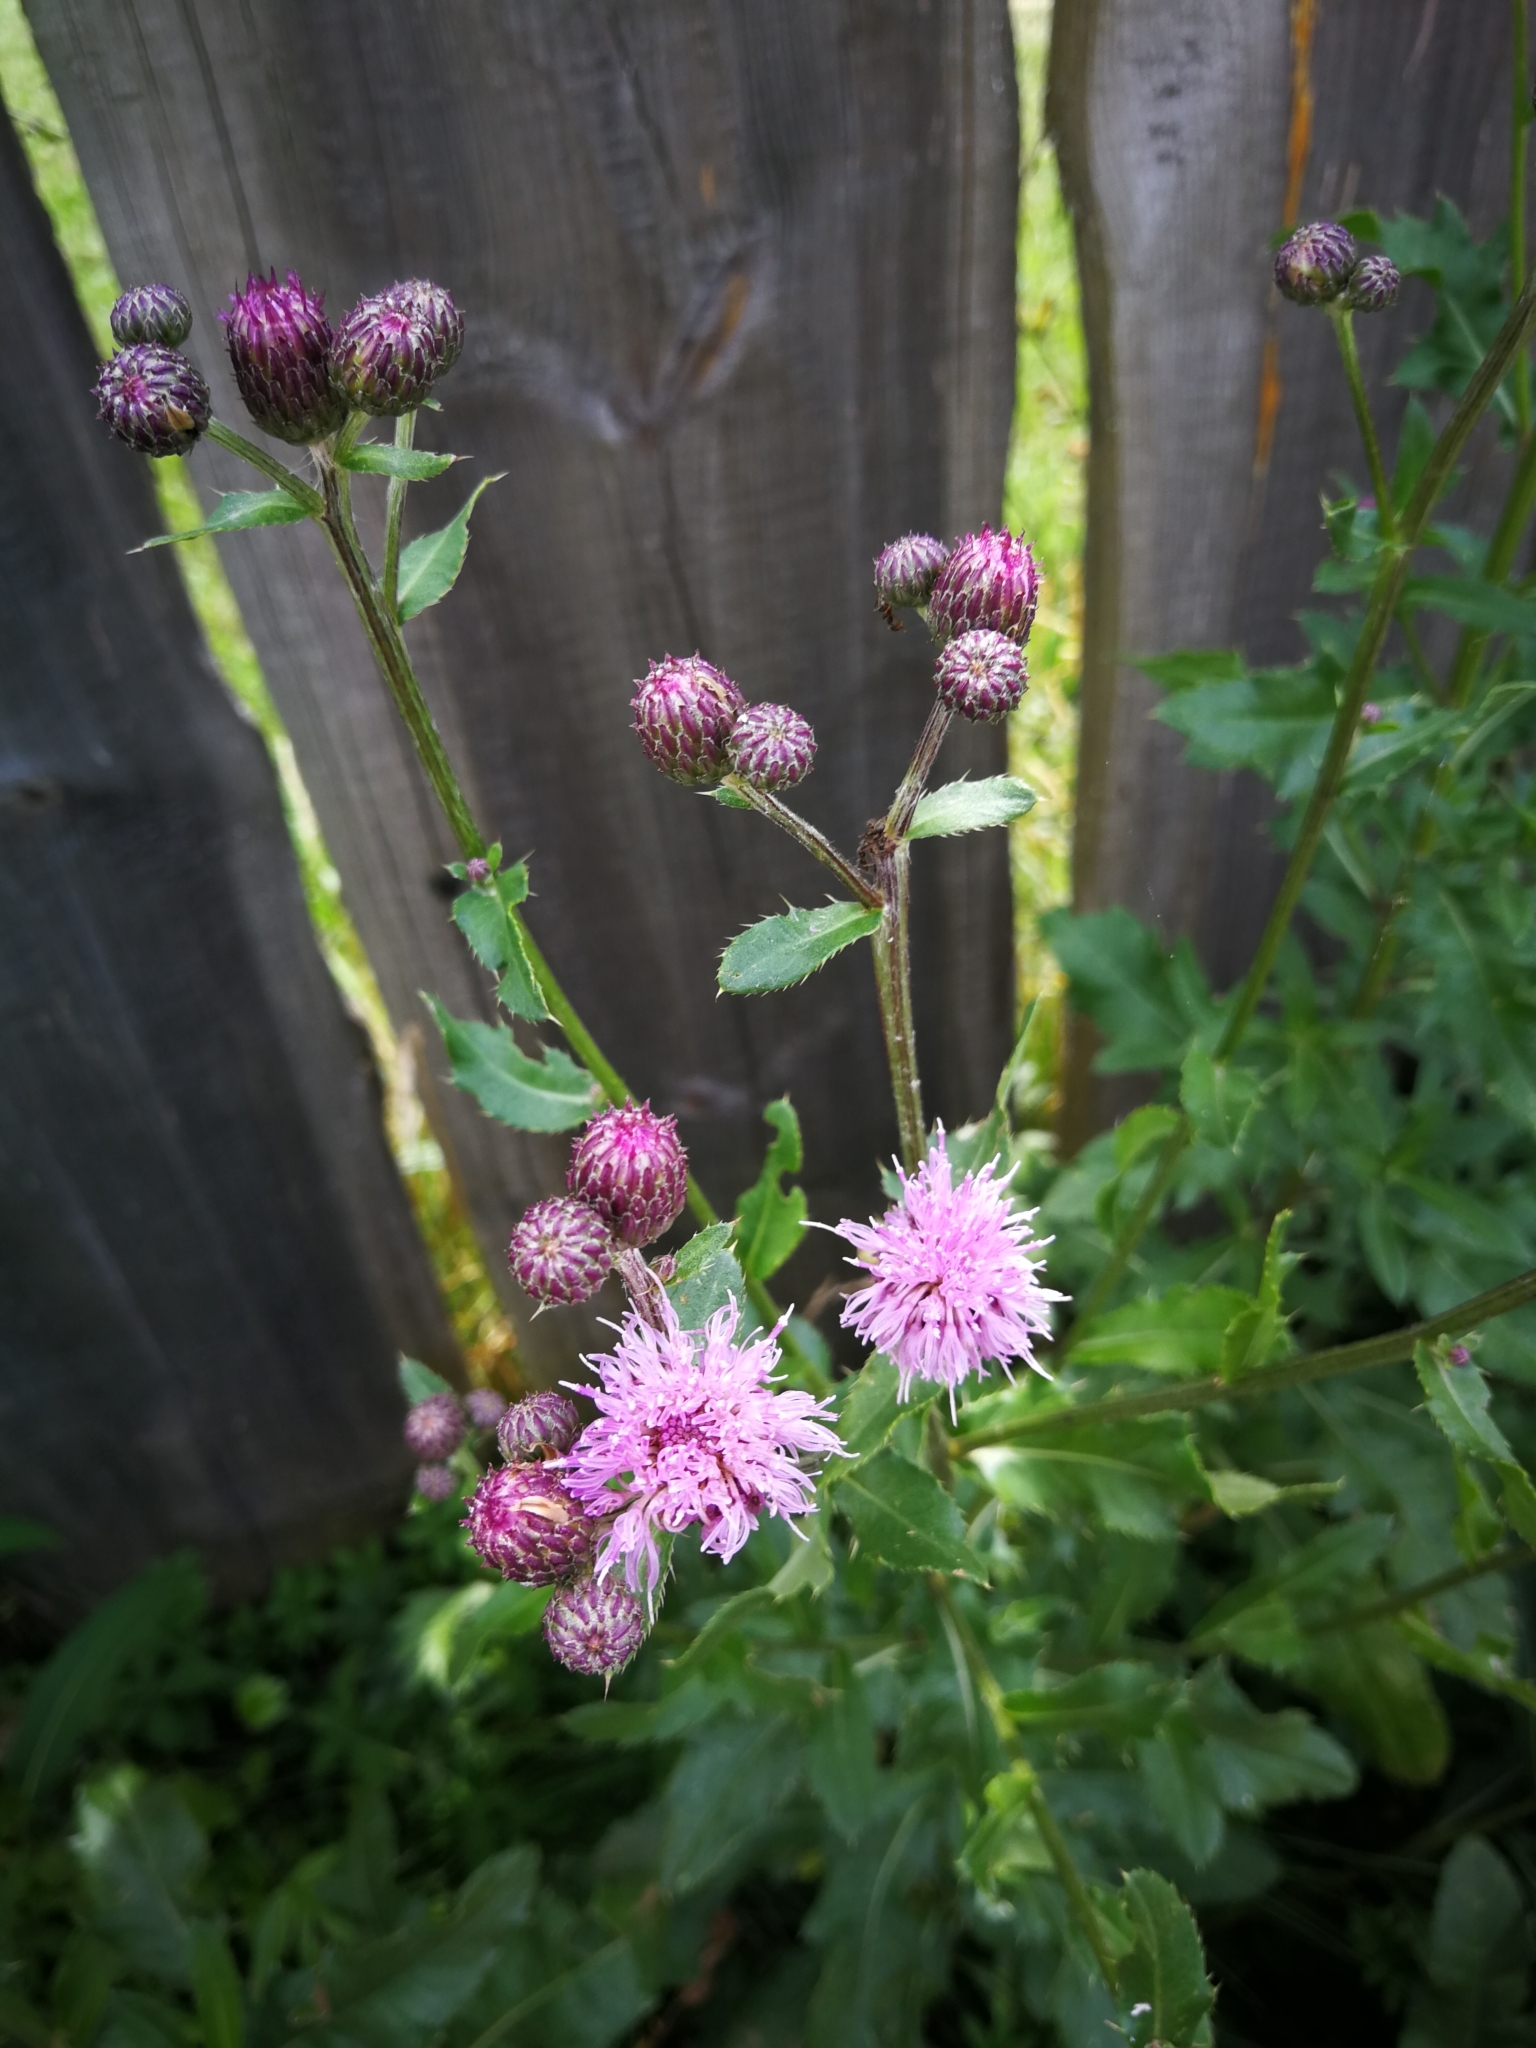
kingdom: Plantae
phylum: Tracheophyta
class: Magnoliopsida
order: Asterales
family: Asteraceae
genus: Cirsium
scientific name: Cirsium arvense
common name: Creeping thistle
